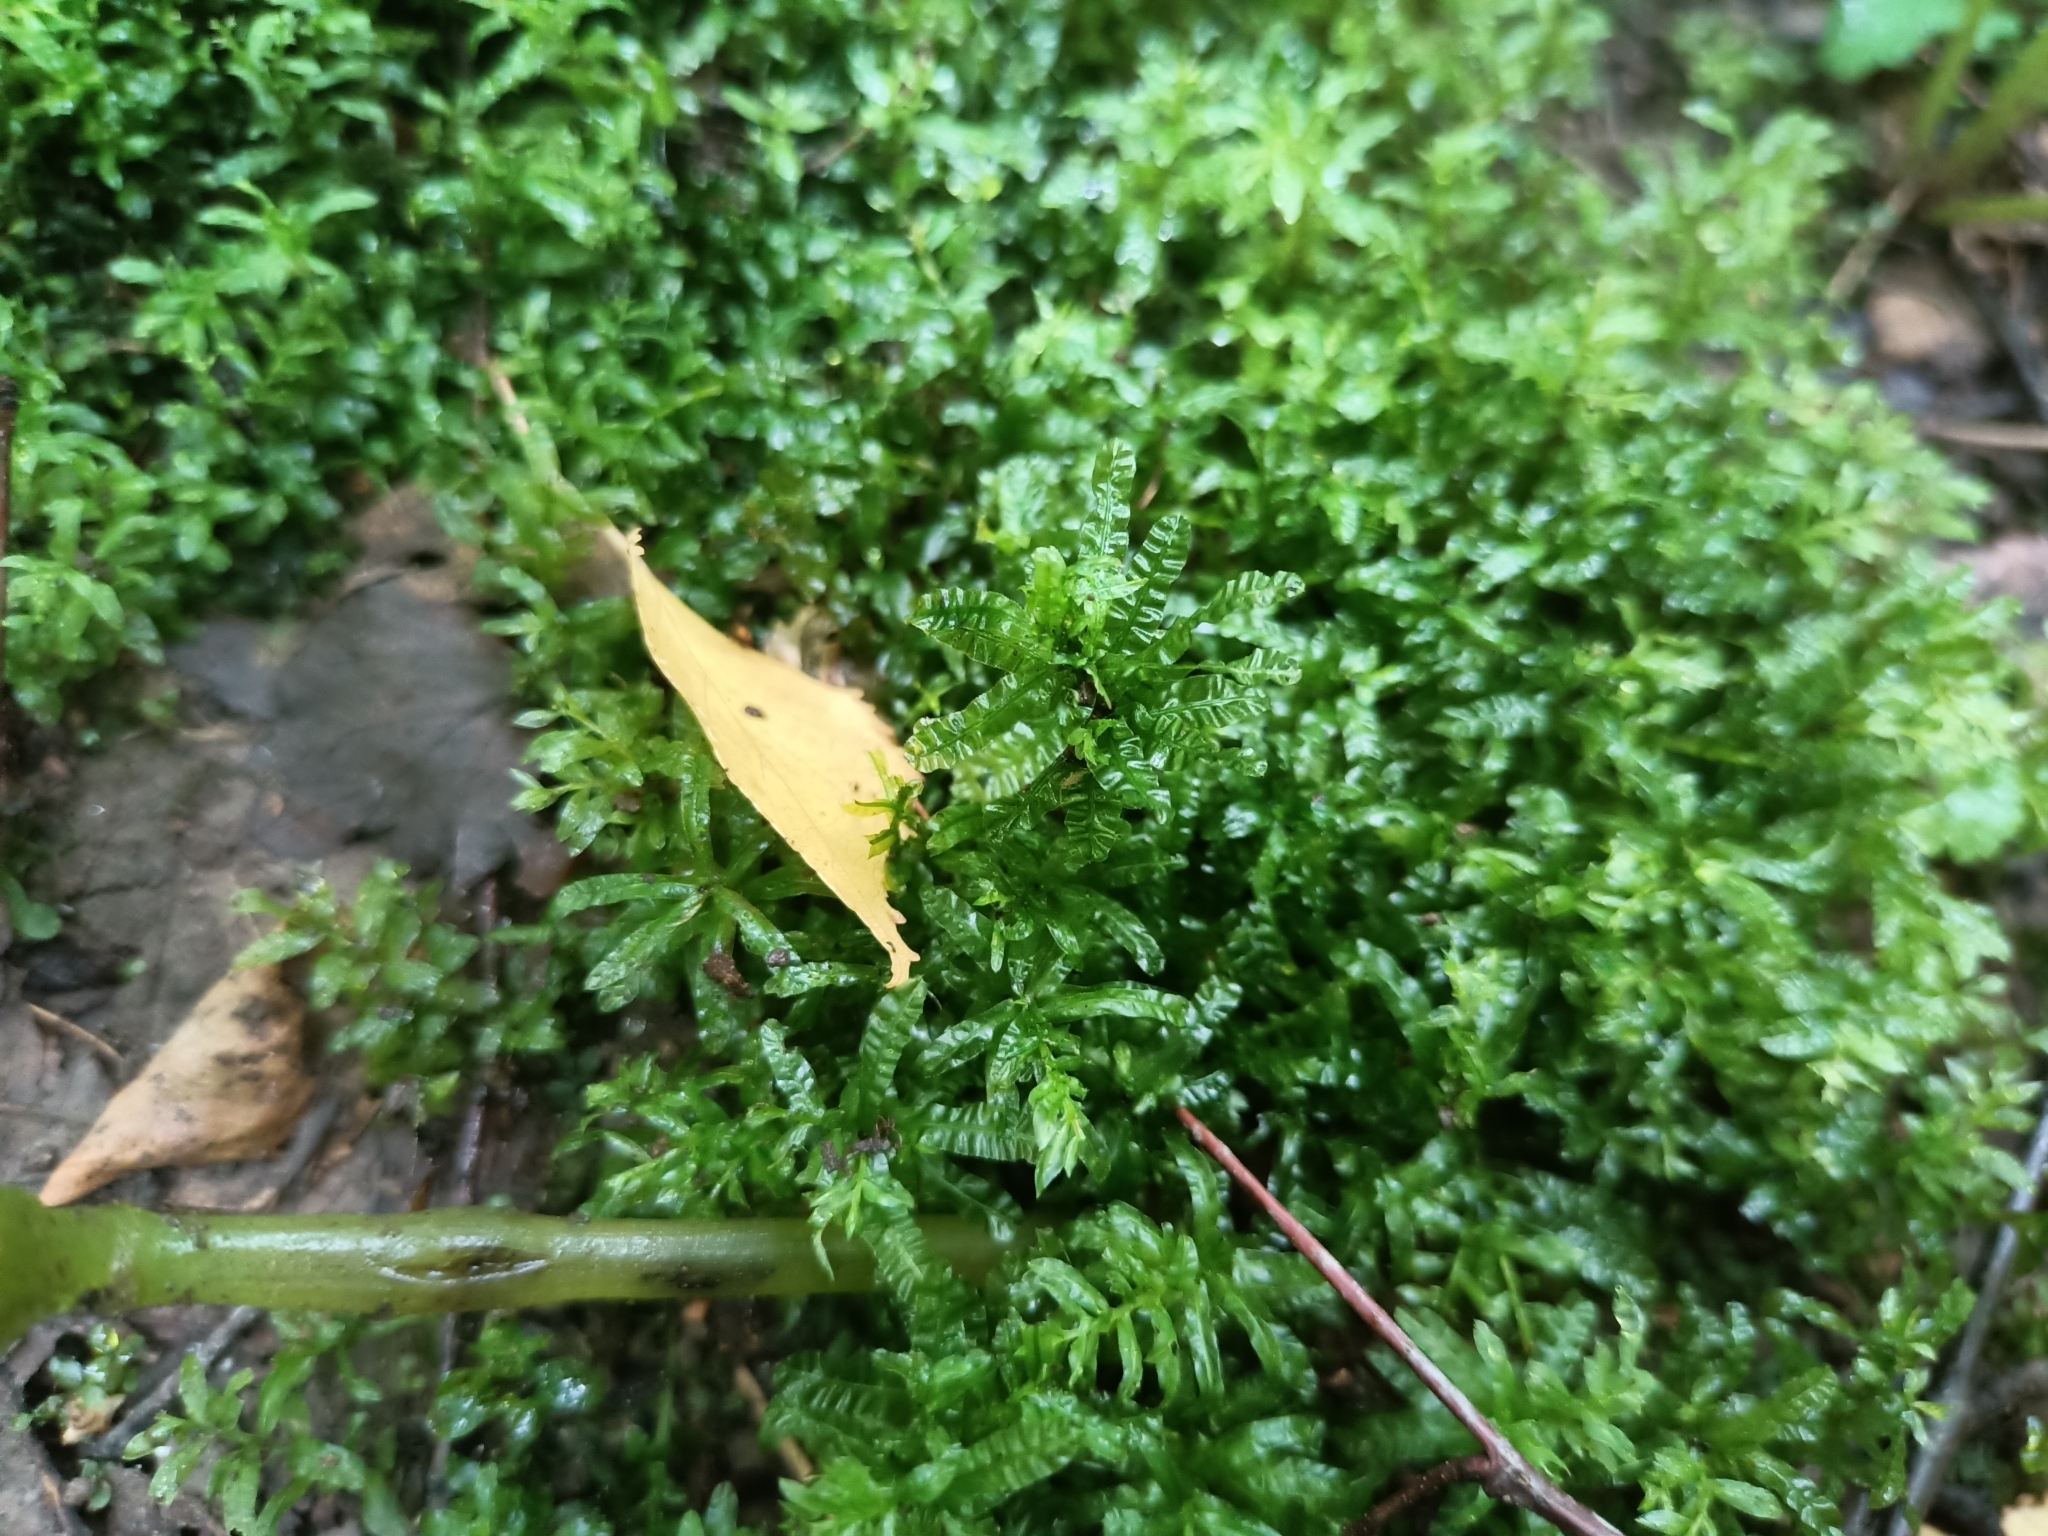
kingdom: Plantae
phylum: Bryophyta
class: Bryopsida
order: Bryales
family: Mniaceae
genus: Plagiomnium
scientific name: Plagiomnium undulatum
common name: Hart's-tongue thyme-moss
